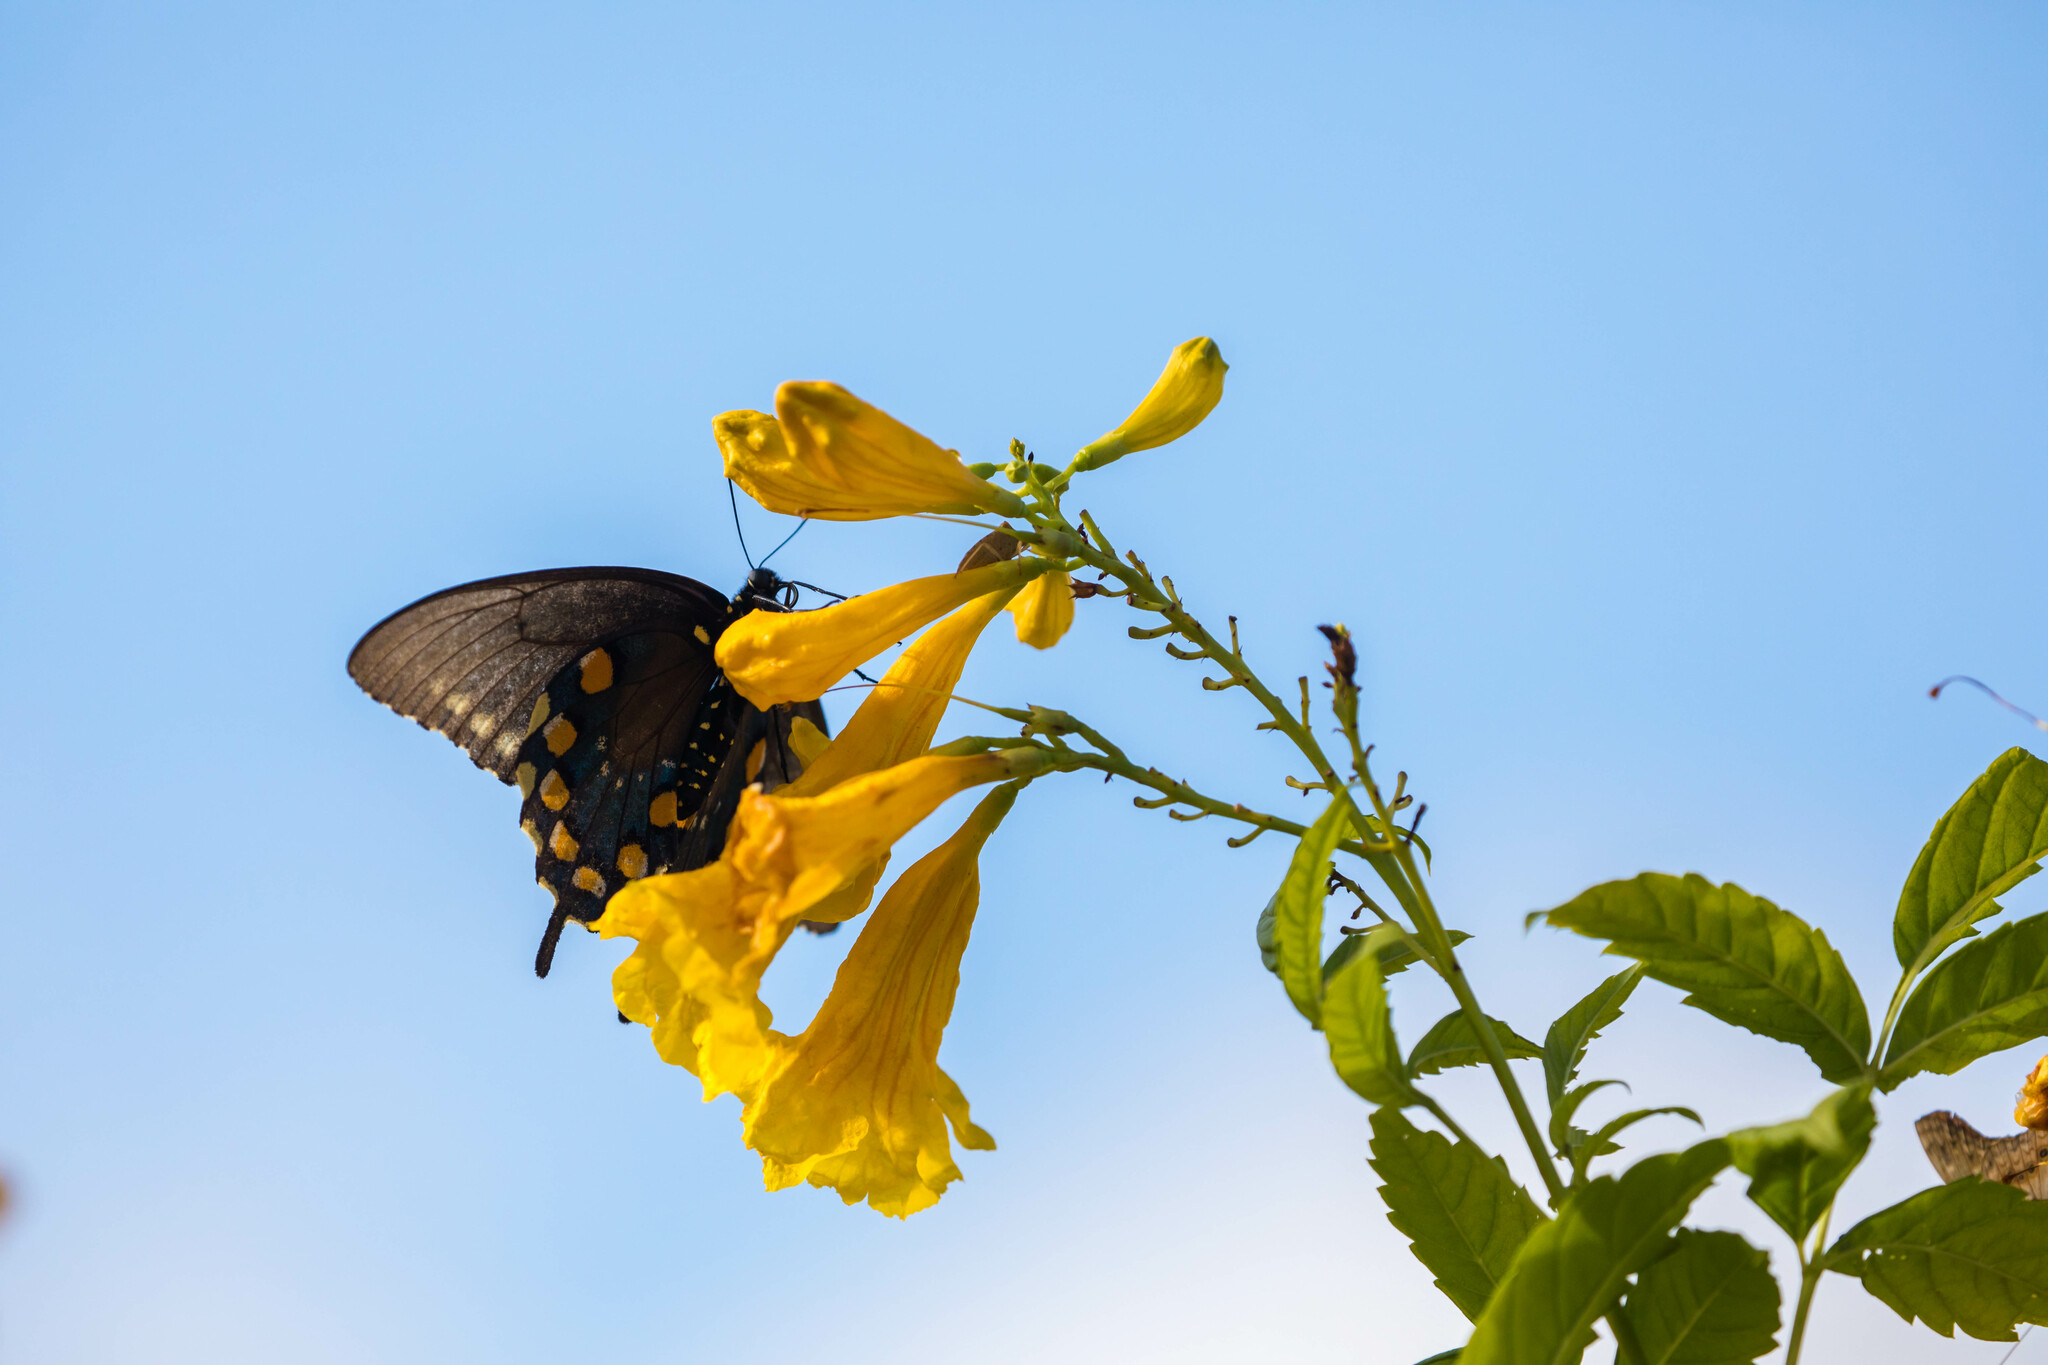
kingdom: Animalia
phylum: Arthropoda
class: Insecta
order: Lepidoptera
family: Papilionidae
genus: Battus
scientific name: Battus philenor
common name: Pipevine swallowtail
